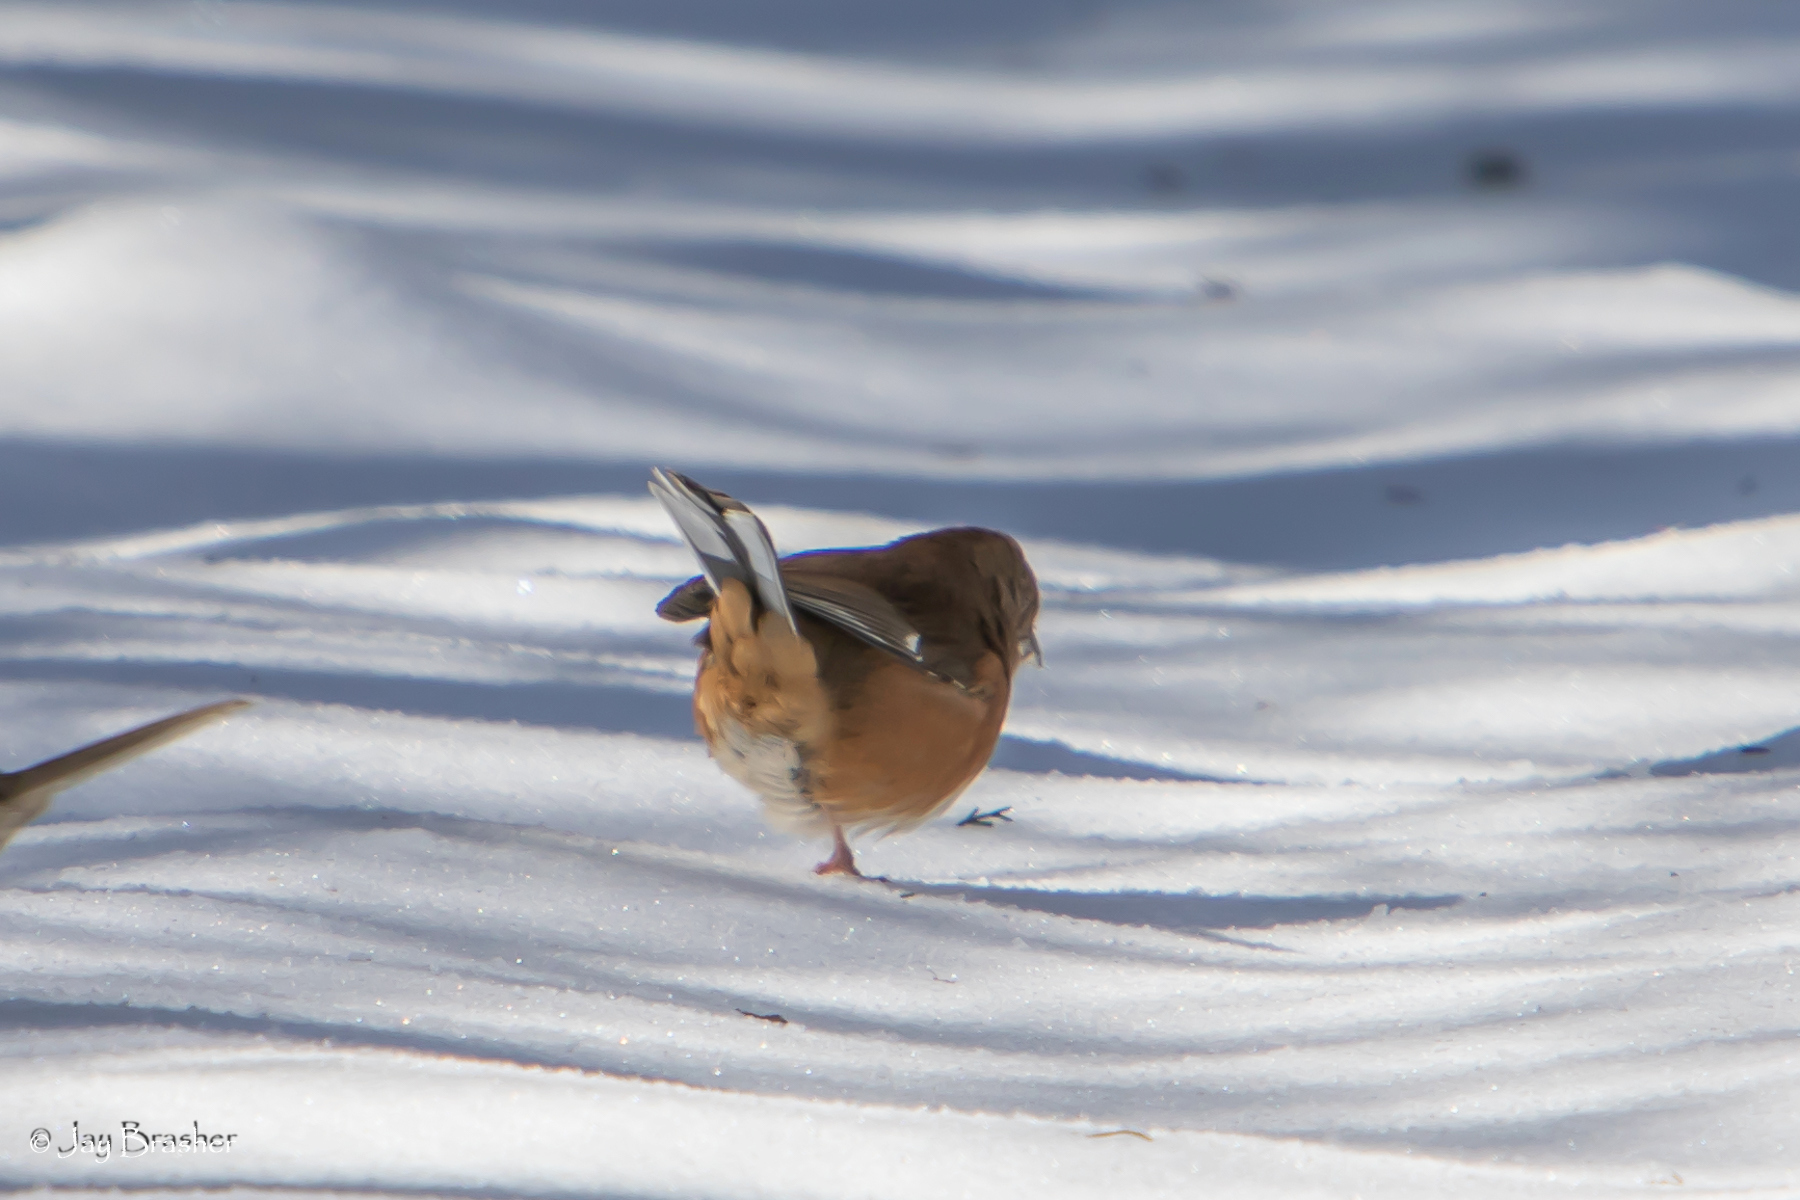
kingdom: Animalia
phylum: Chordata
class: Aves
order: Passeriformes
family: Passerellidae
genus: Pipilo
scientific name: Pipilo erythrophthalmus
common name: Eastern towhee
